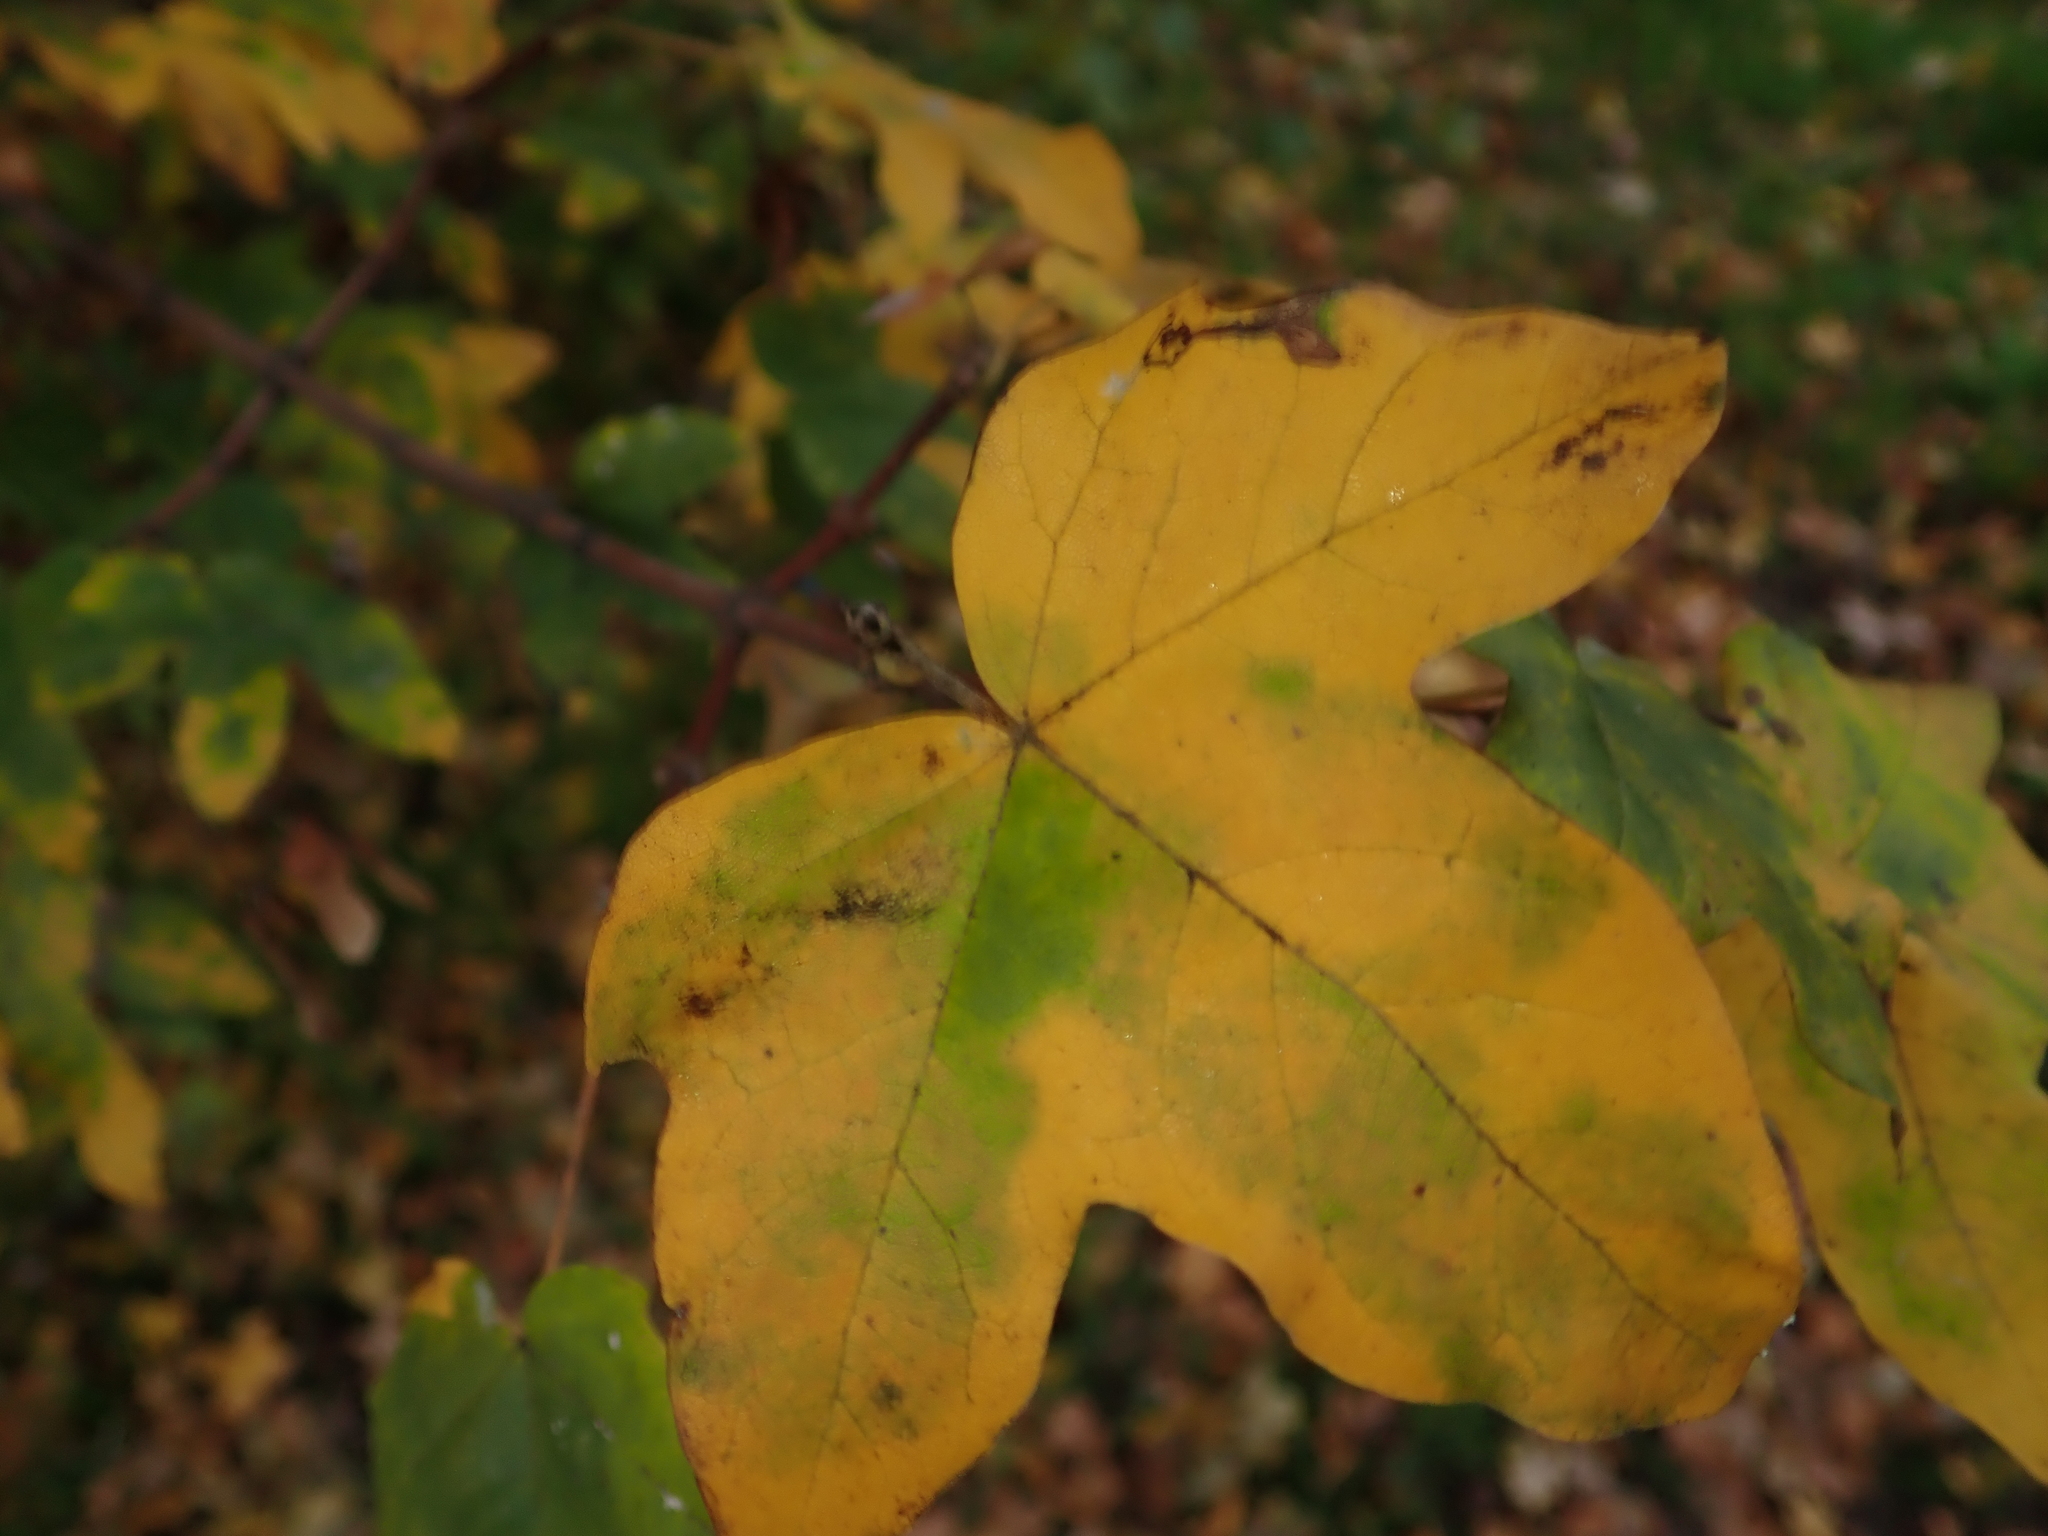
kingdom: Plantae
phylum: Tracheophyta
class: Magnoliopsida
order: Sapindales
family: Sapindaceae
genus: Acer
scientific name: Acer campestre
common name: Field maple
